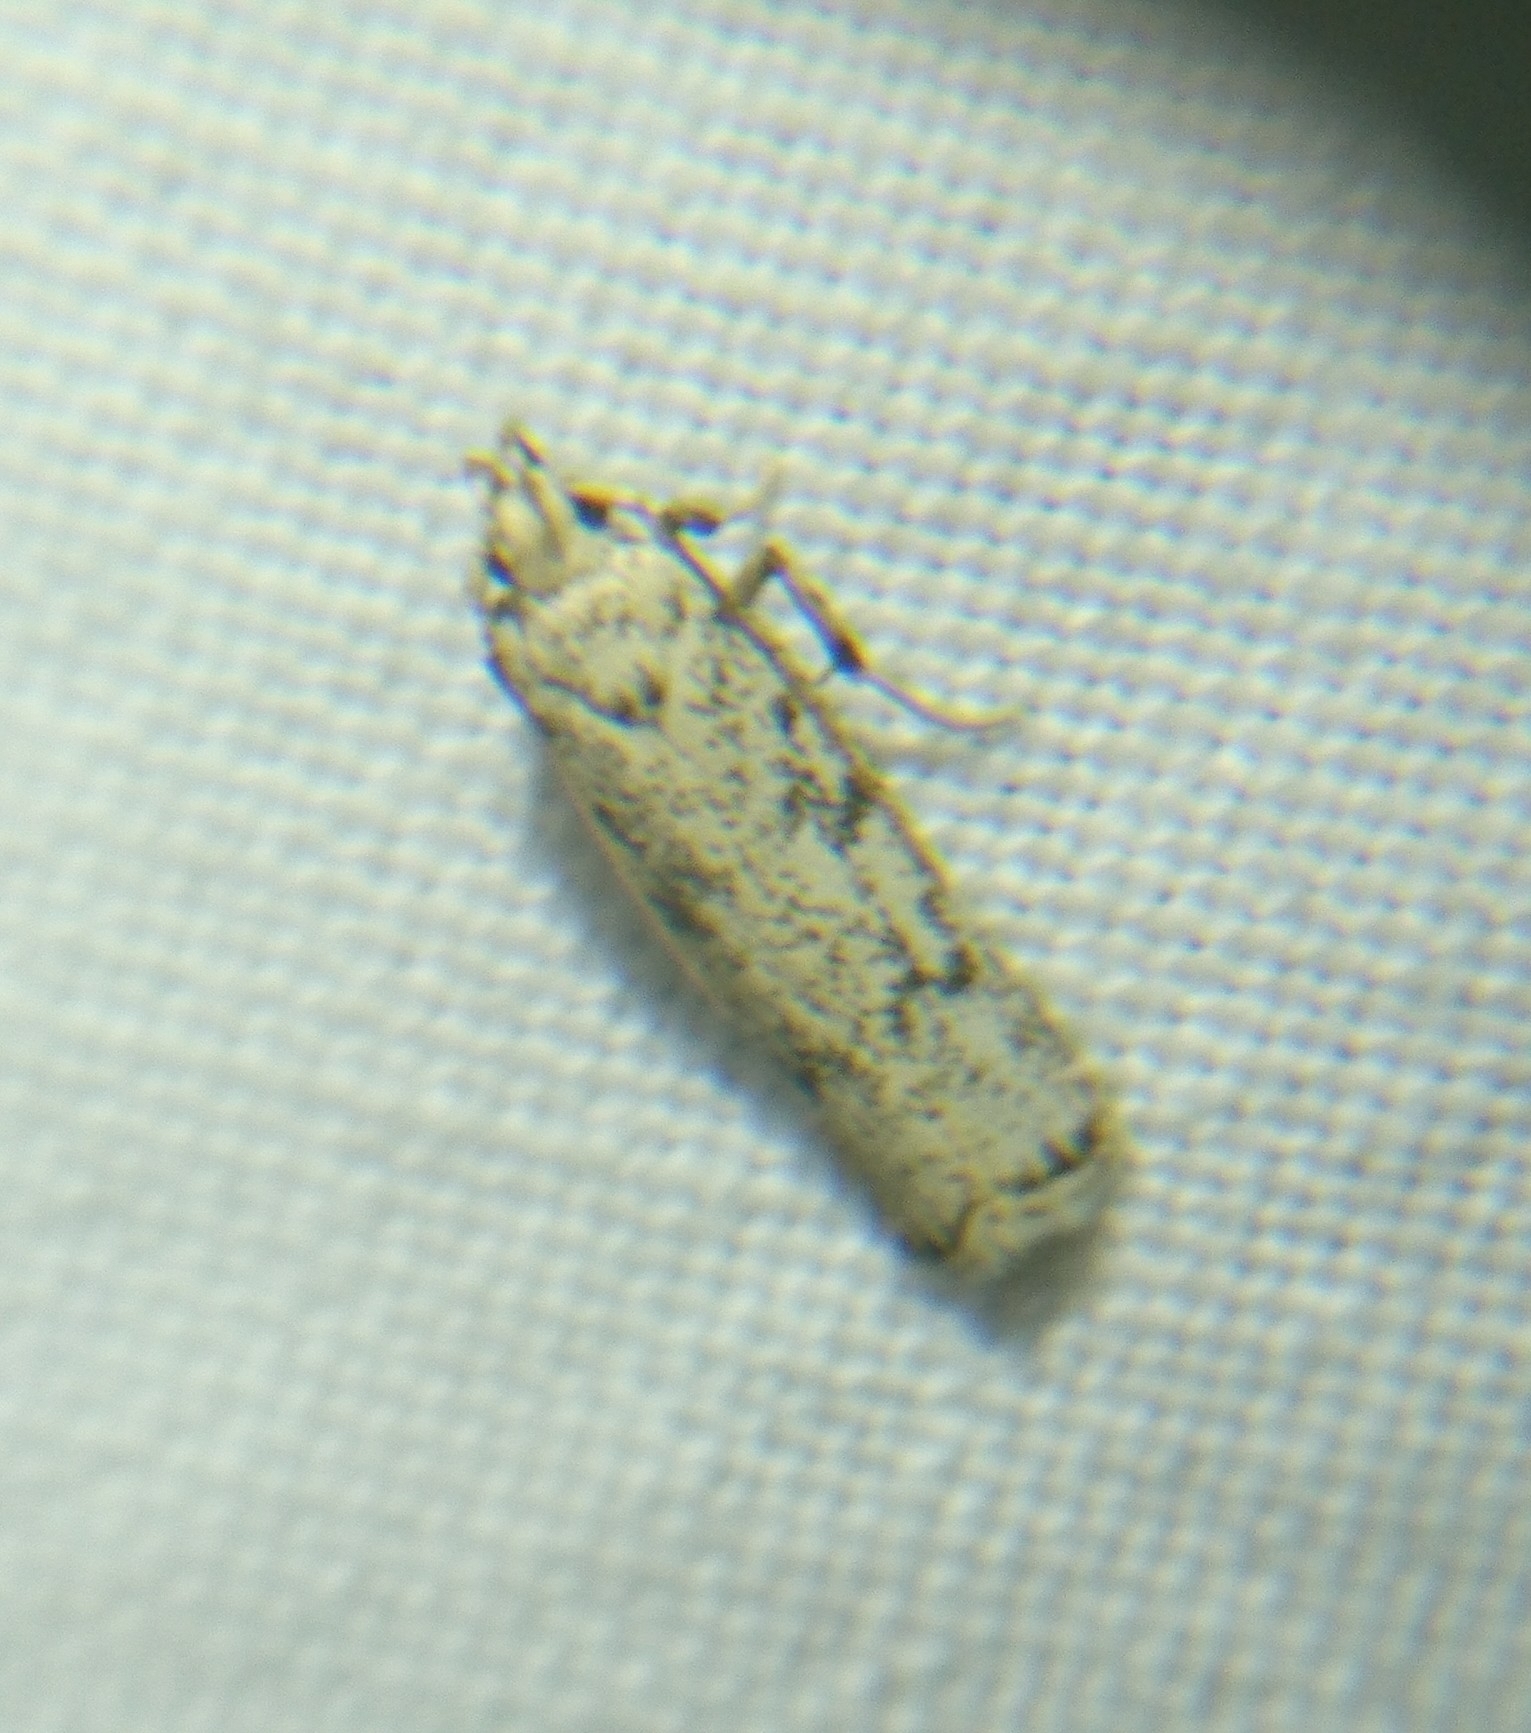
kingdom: Animalia
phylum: Arthropoda
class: Insecta
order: Lepidoptera
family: Autostichidae
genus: Glyphidocera
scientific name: Glyphidocera lactiflosella
